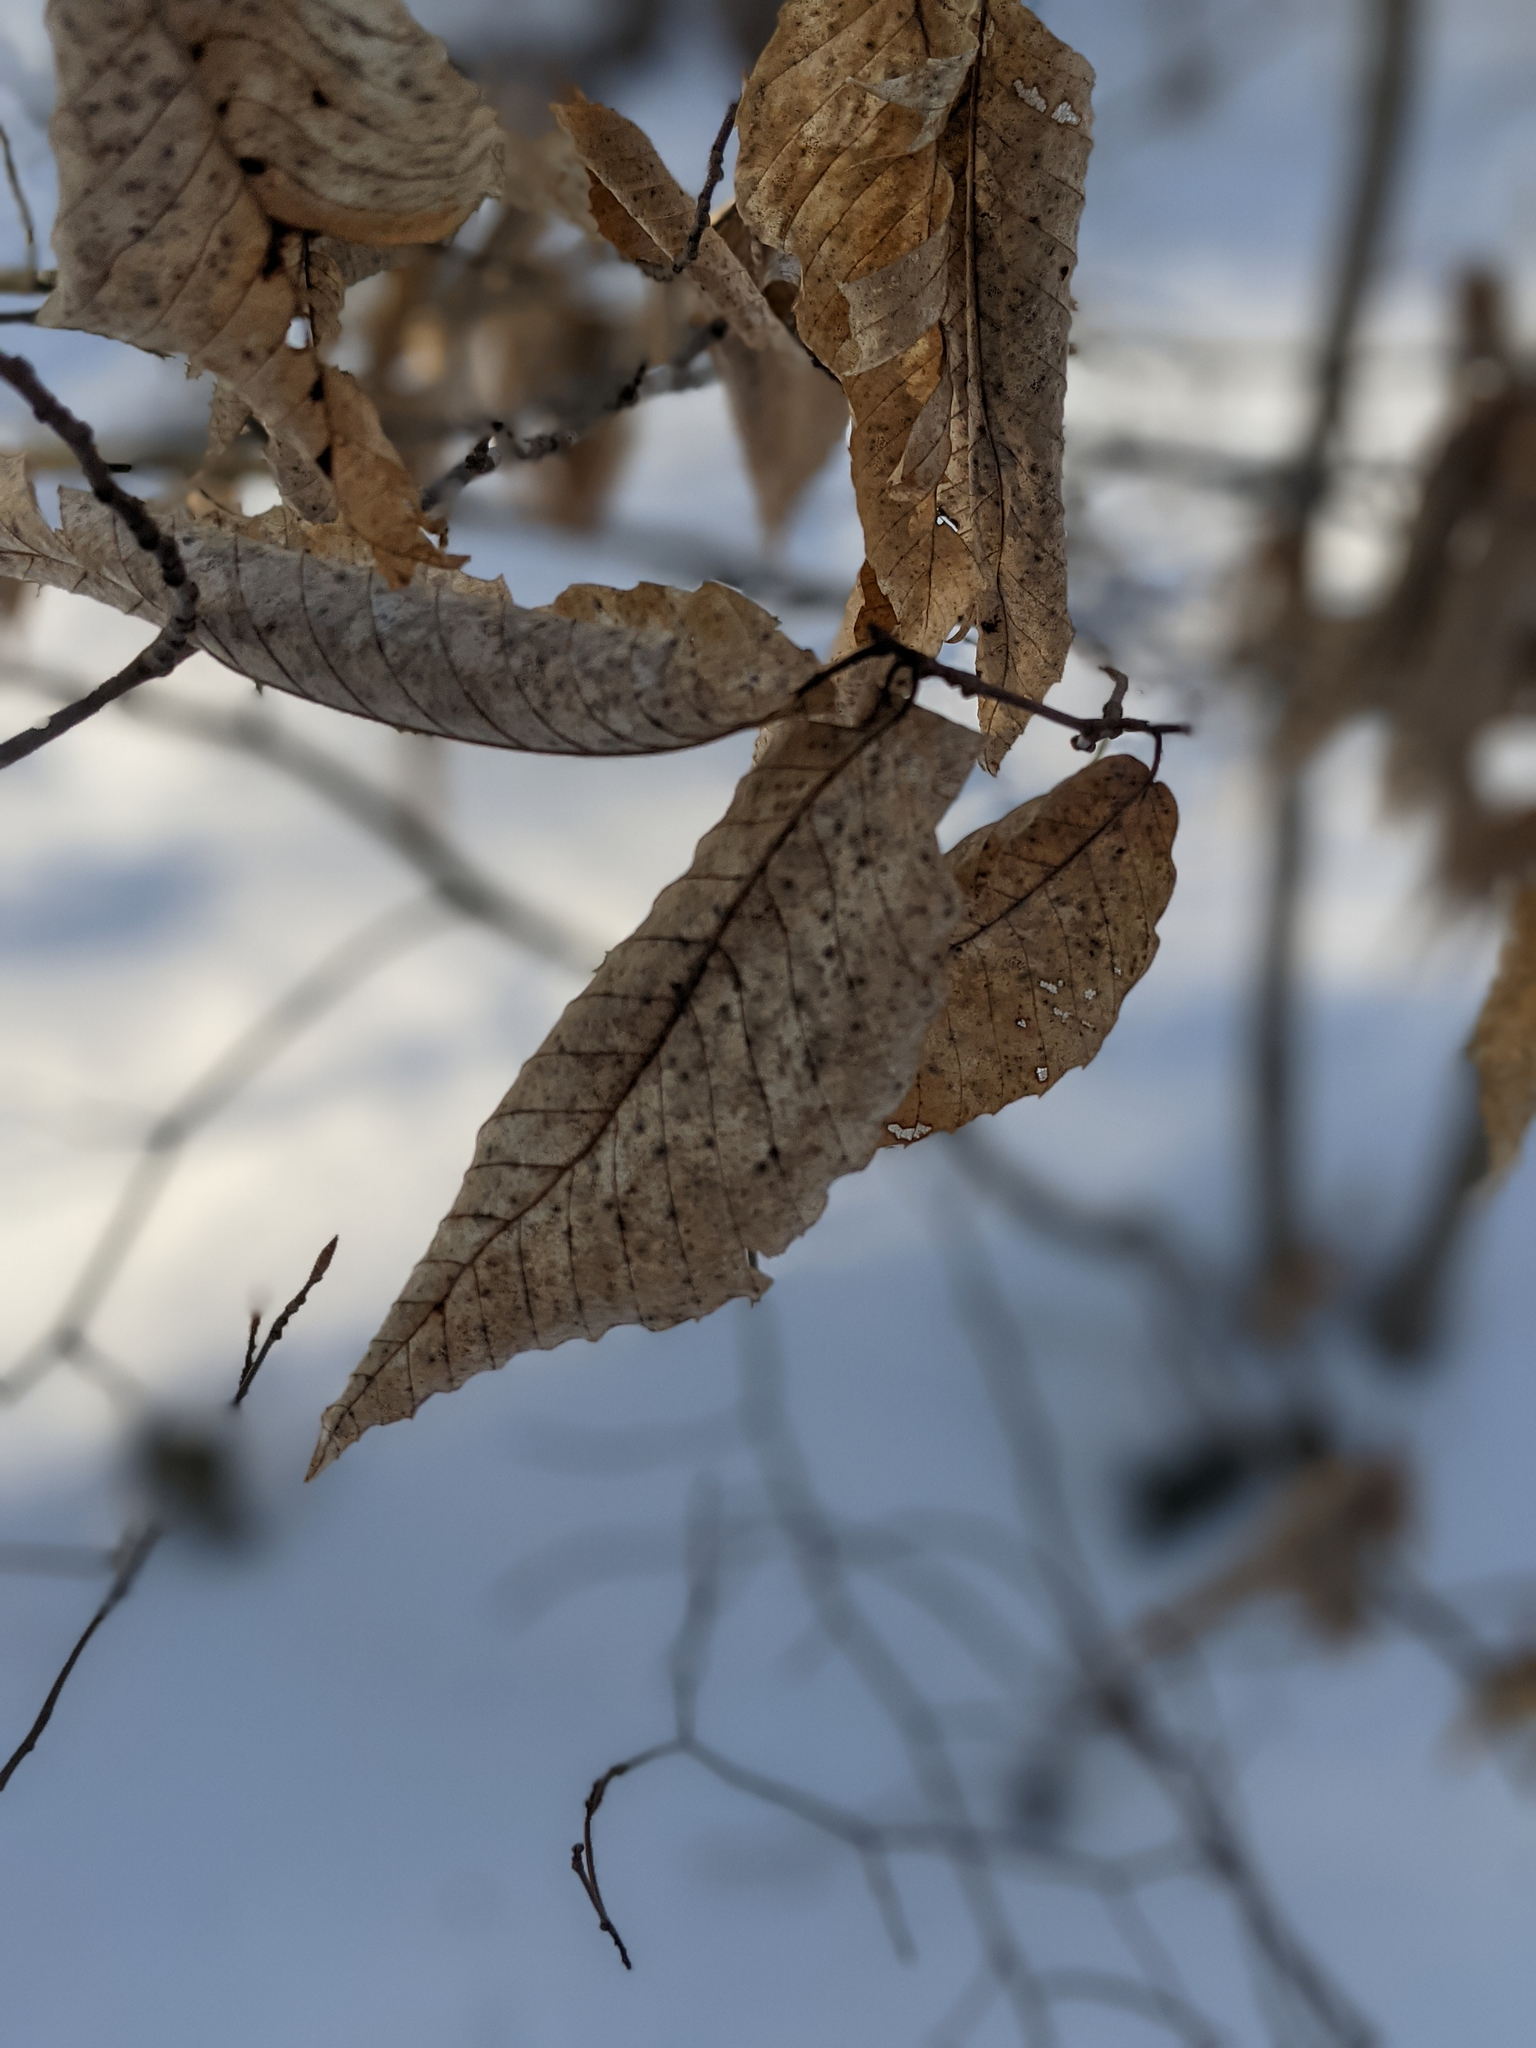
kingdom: Plantae
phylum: Tracheophyta
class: Magnoliopsida
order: Fagales
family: Fagaceae
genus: Fagus
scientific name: Fagus grandifolia
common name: American beech
